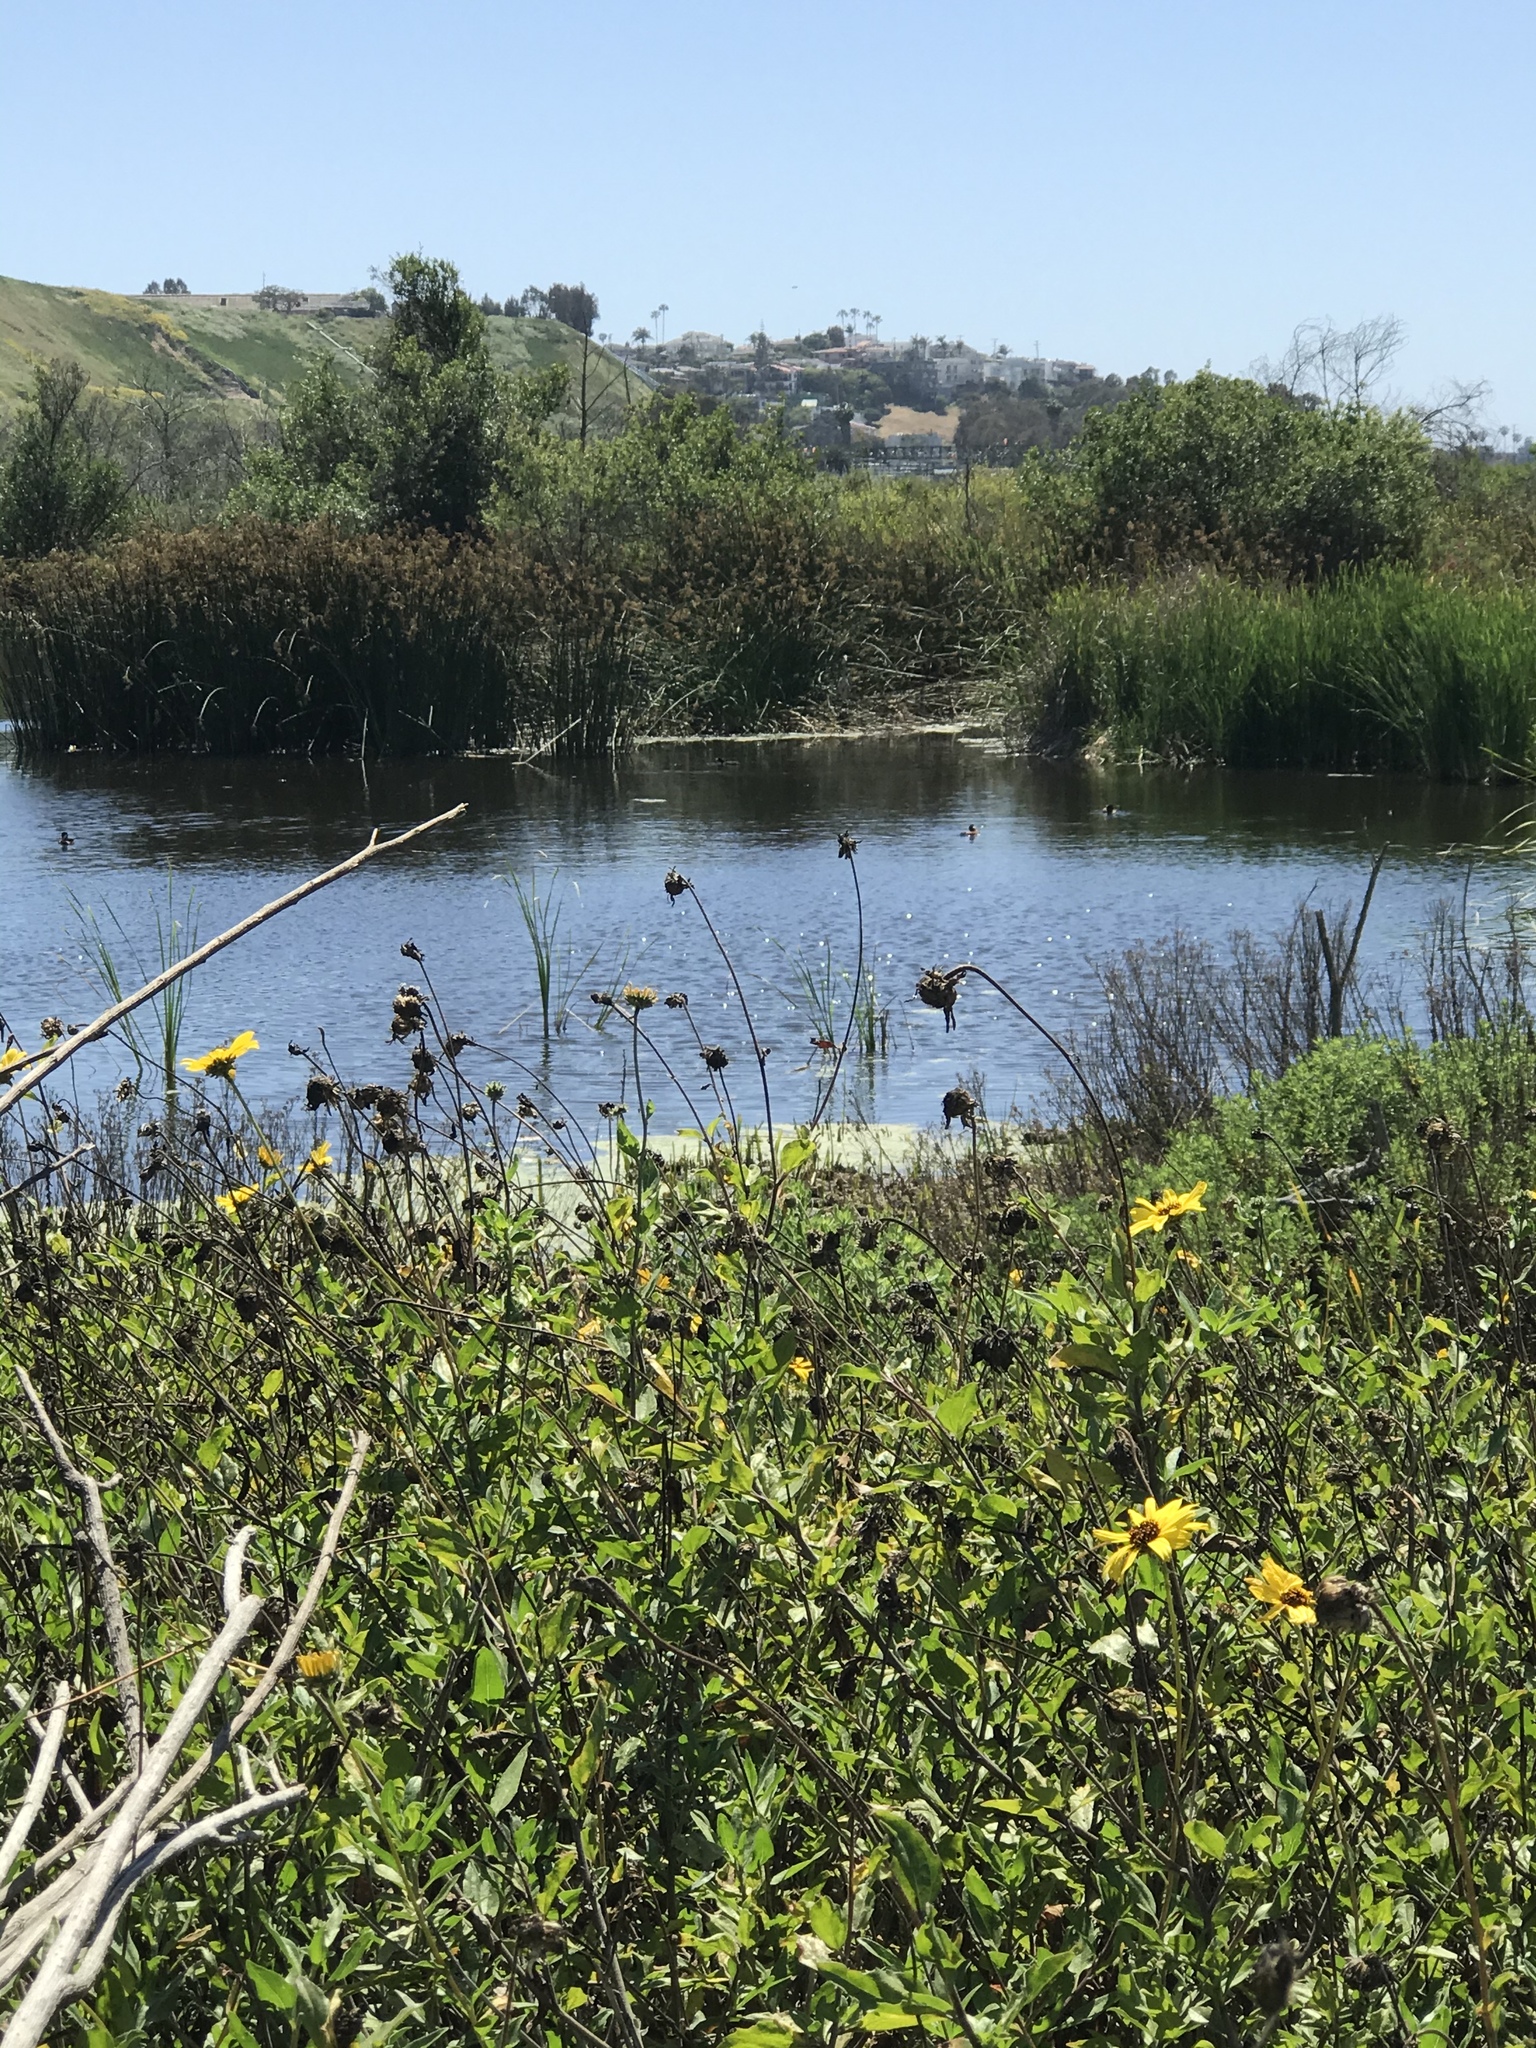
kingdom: Animalia
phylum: Chordata
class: Aves
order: Anseriformes
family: Anatidae
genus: Oxyura
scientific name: Oxyura jamaicensis
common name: Ruddy duck
